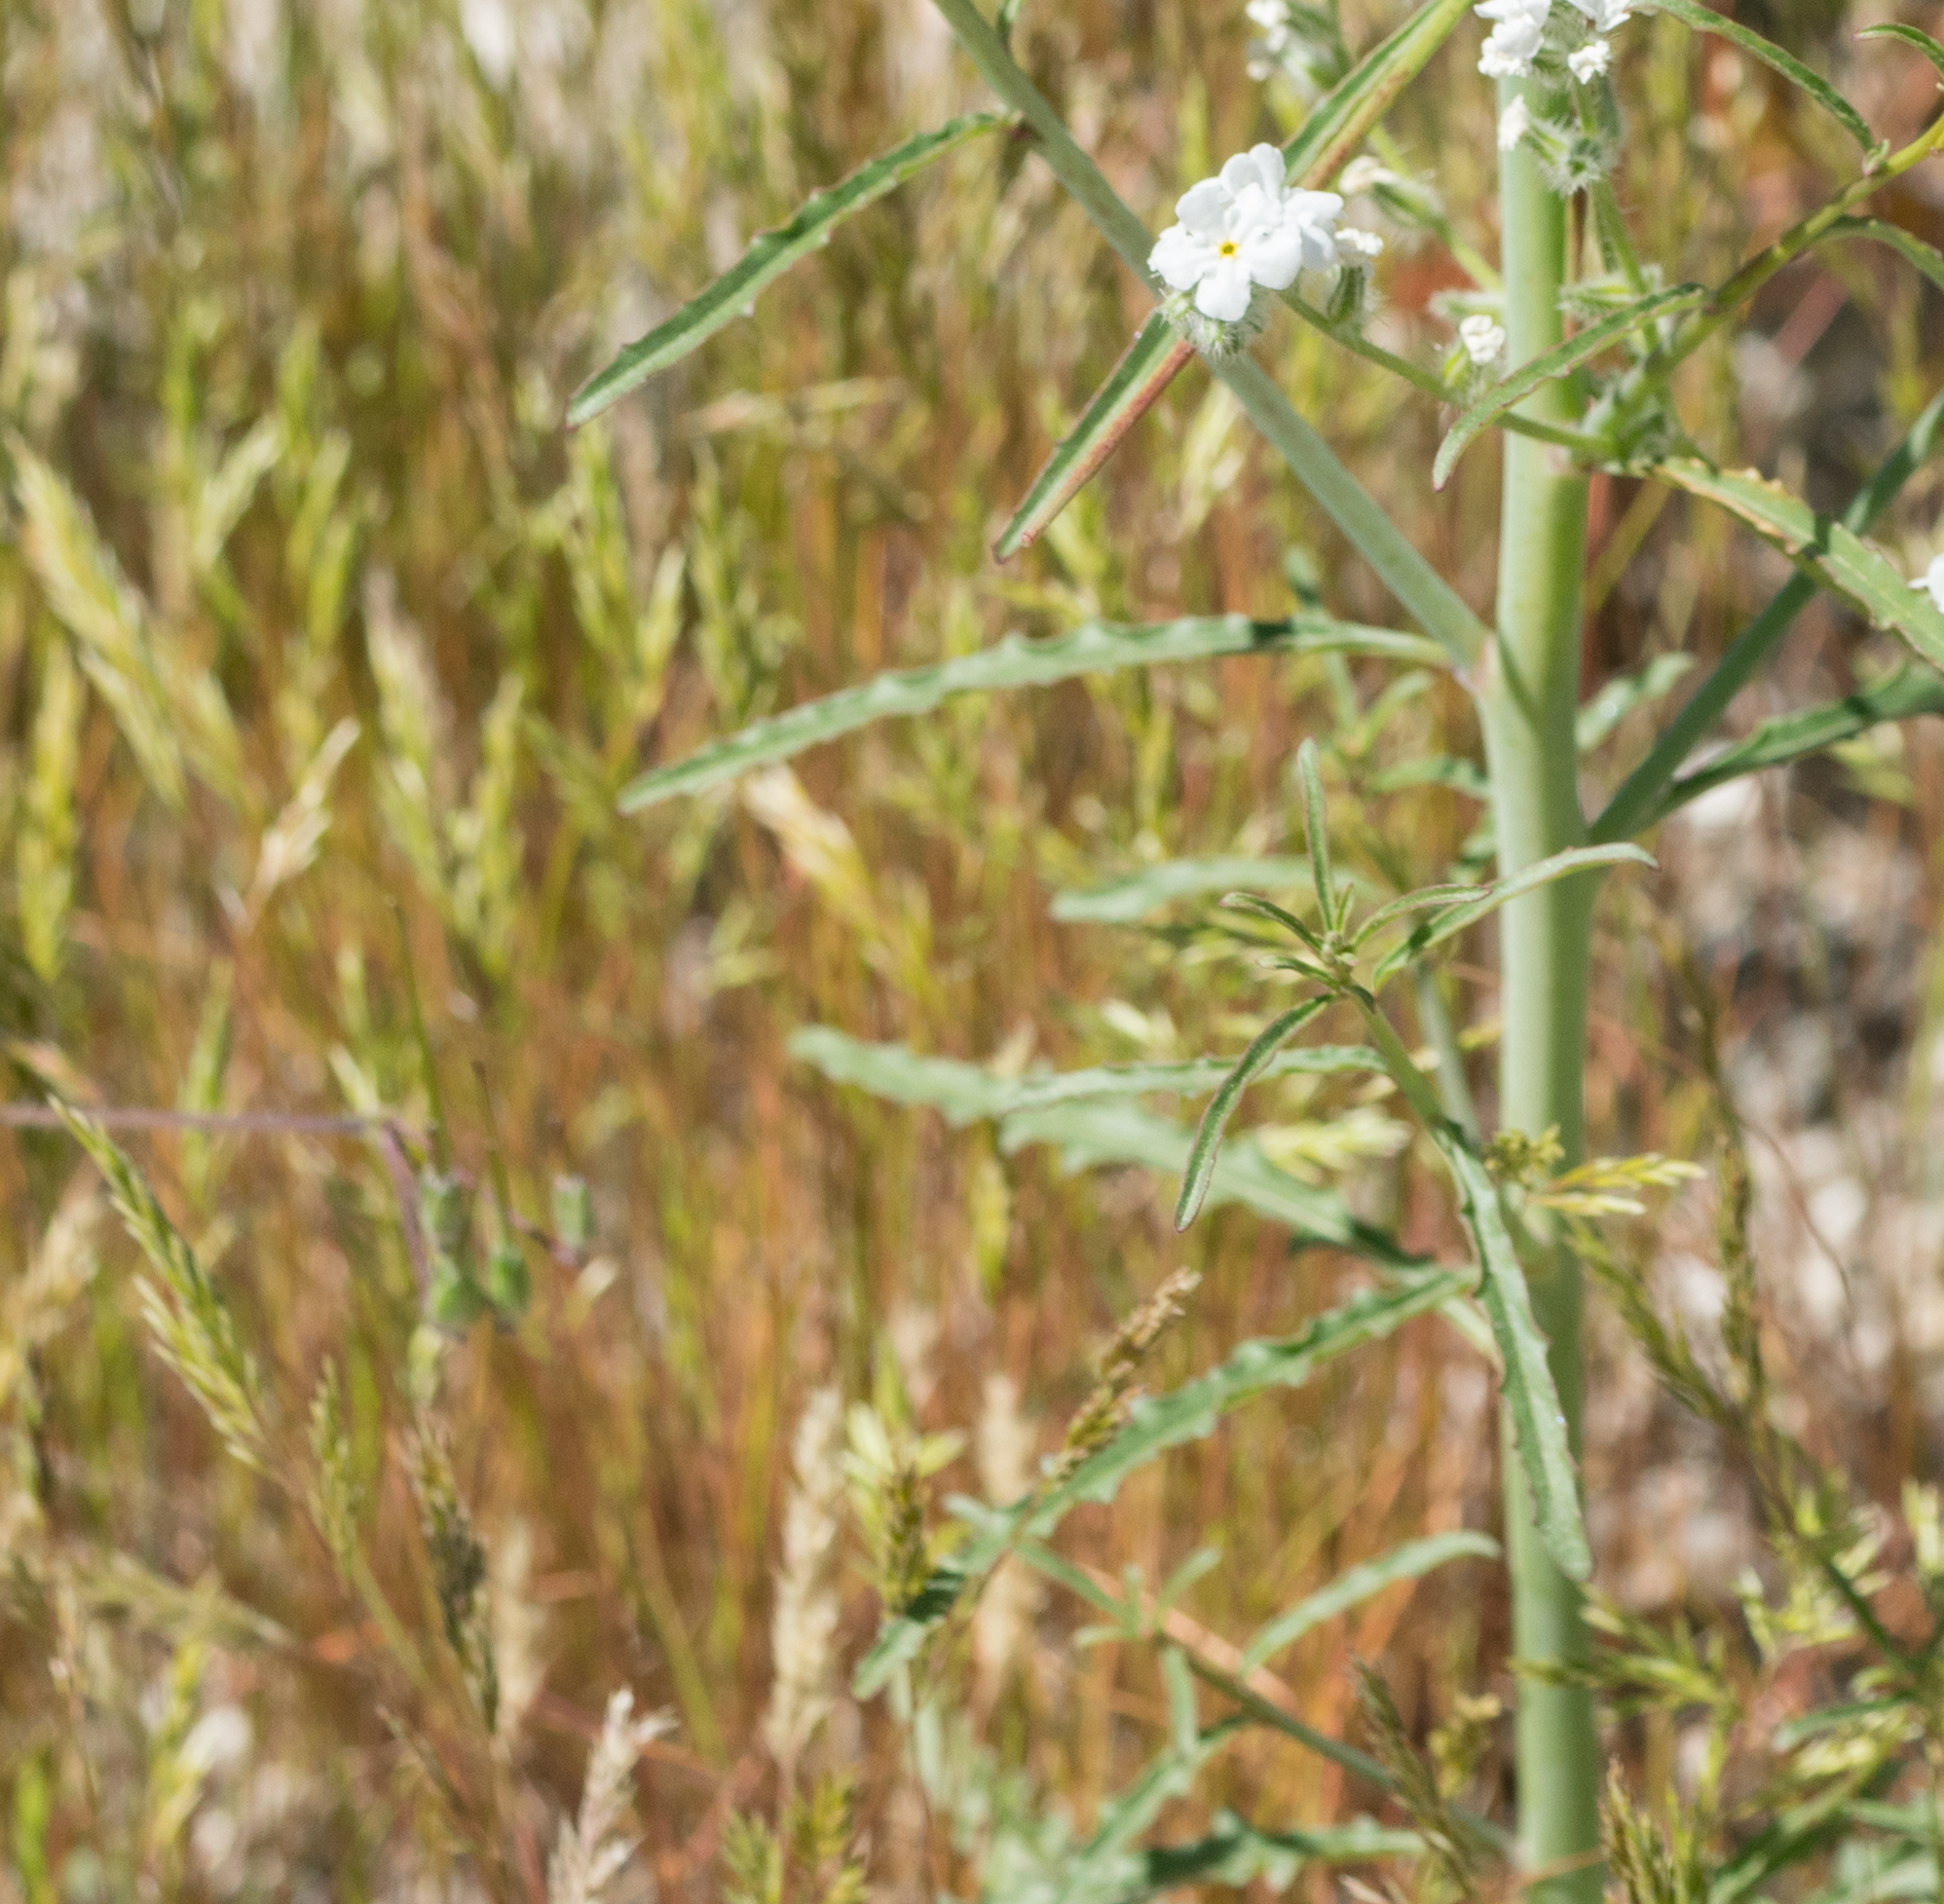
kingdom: Plantae
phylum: Tracheophyta
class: Magnoliopsida
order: Myrtales
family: Onagraceae
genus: Eulobus
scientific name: Eulobus californicus
